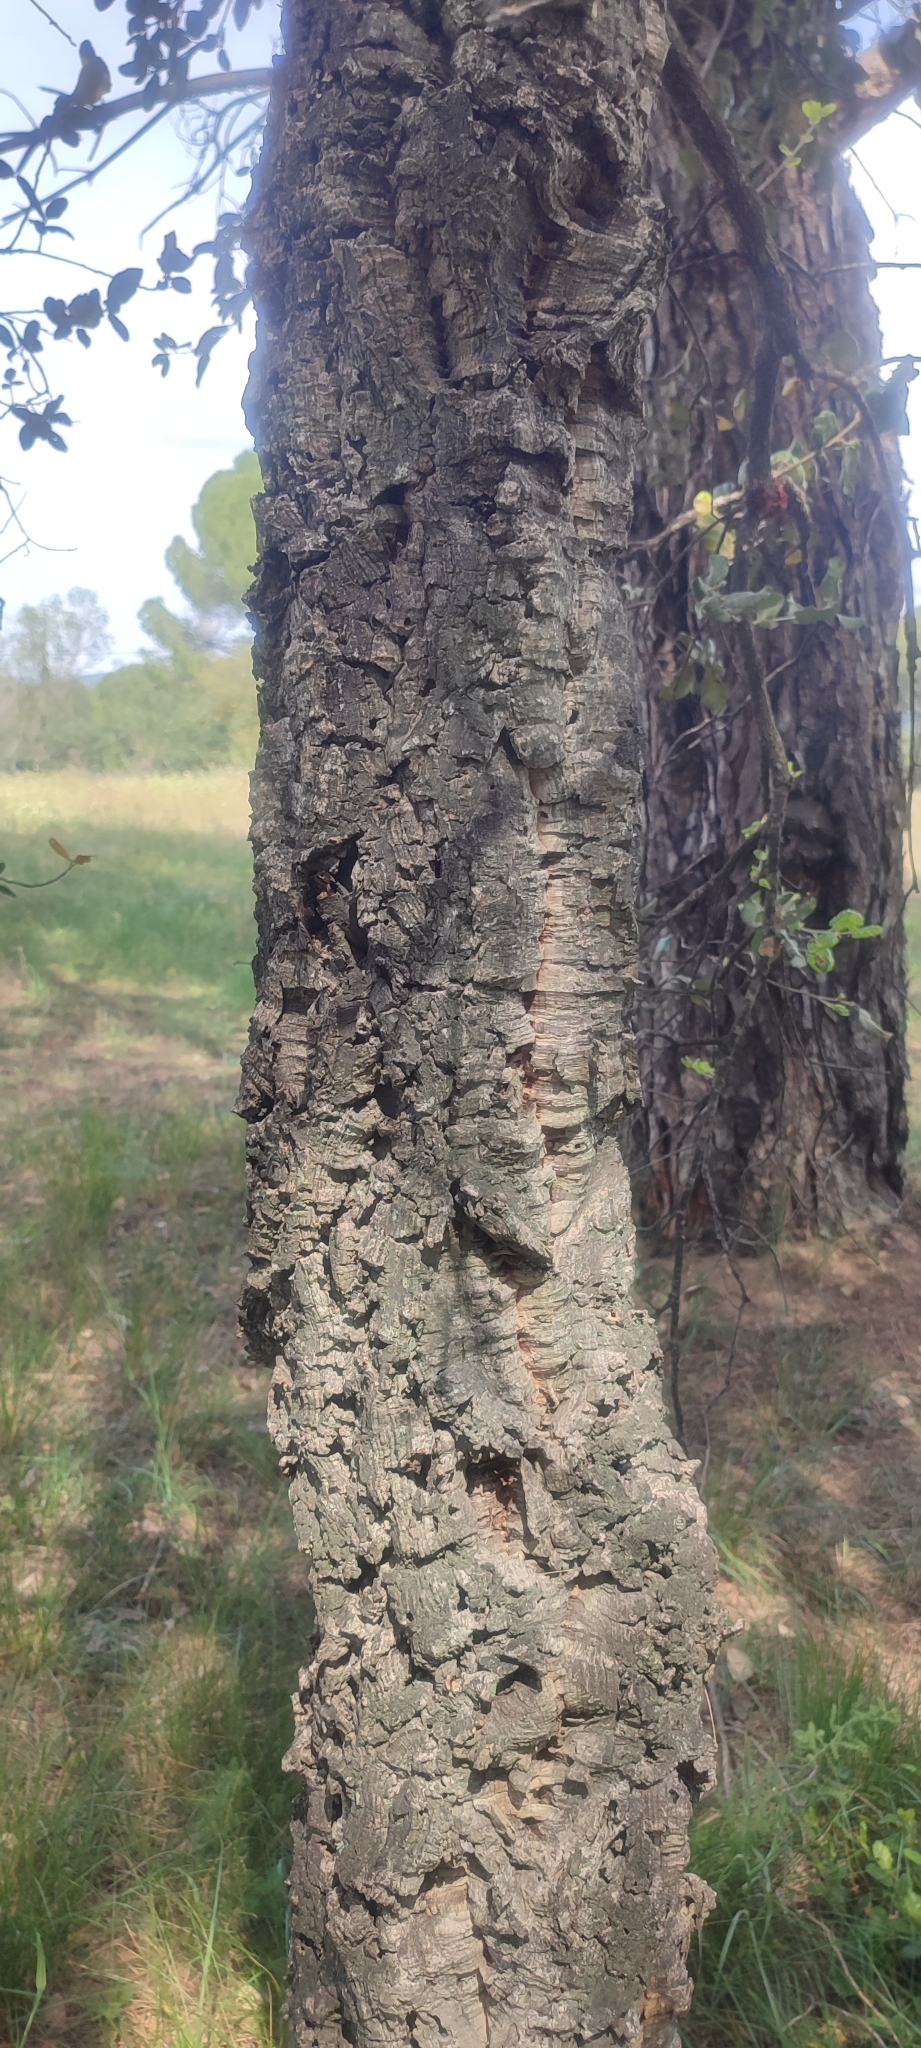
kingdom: Plantae
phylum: Tracheophyta
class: Magnoliopsida
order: Fagales
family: Fagaceae
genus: Quercus
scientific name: Quercus suber
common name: Cork oak
